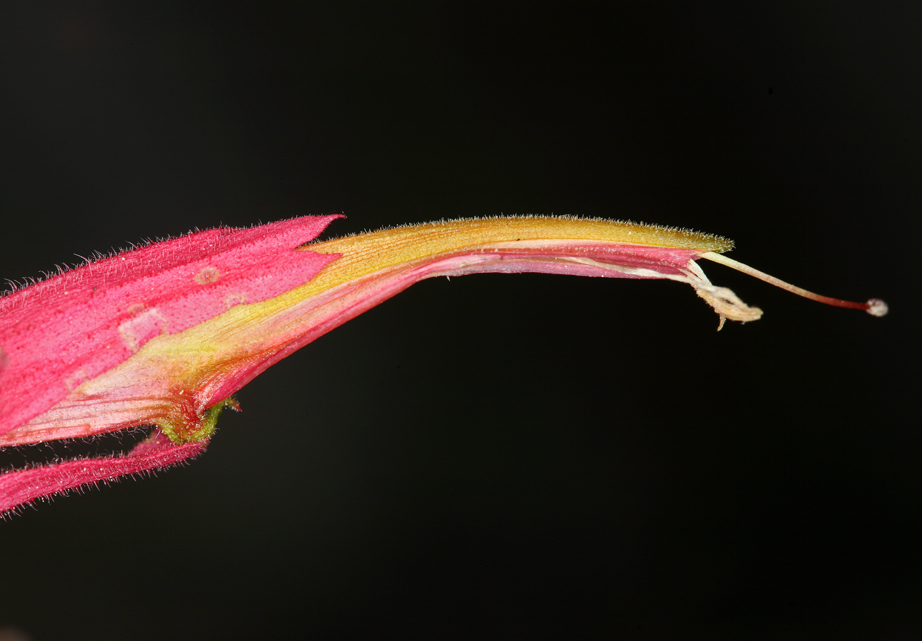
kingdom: Plantae
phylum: Tracheophyta
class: Magnoliopsida
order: Lamiales
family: Orobanchaceae
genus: Castilleja
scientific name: Castilleja linariifolia
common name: Wyoming paintbrush
